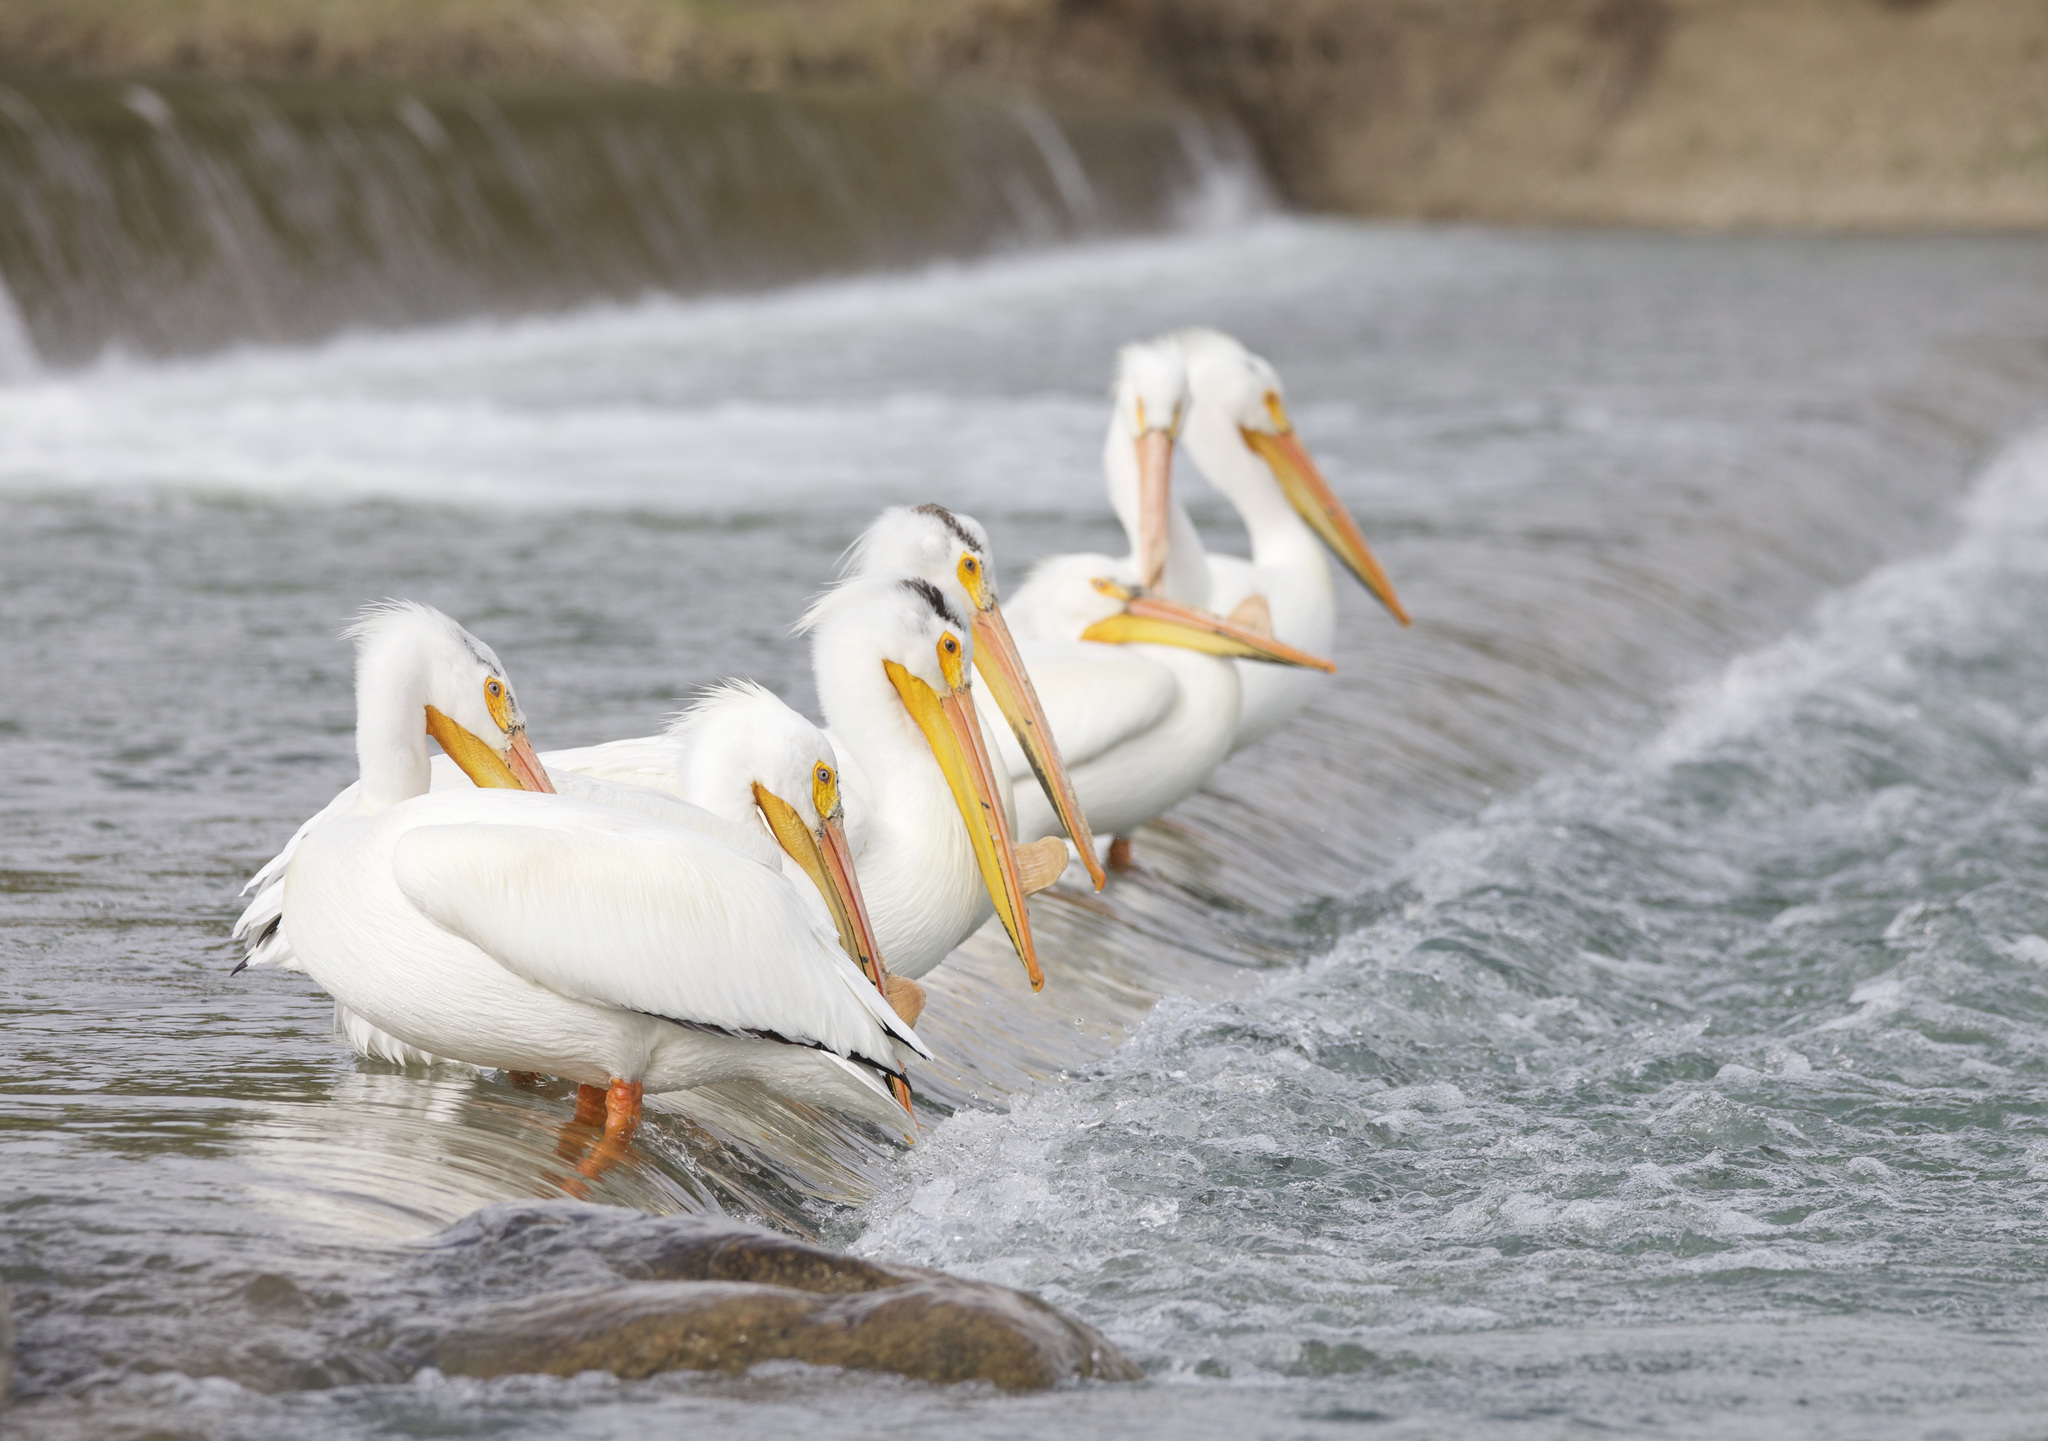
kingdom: Animalia
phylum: Chordata
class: Aves
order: Pelecaniformes
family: Pelecanidae
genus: Pelecanus
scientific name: Pelecanus erythrorhynchos
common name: American white pelican
